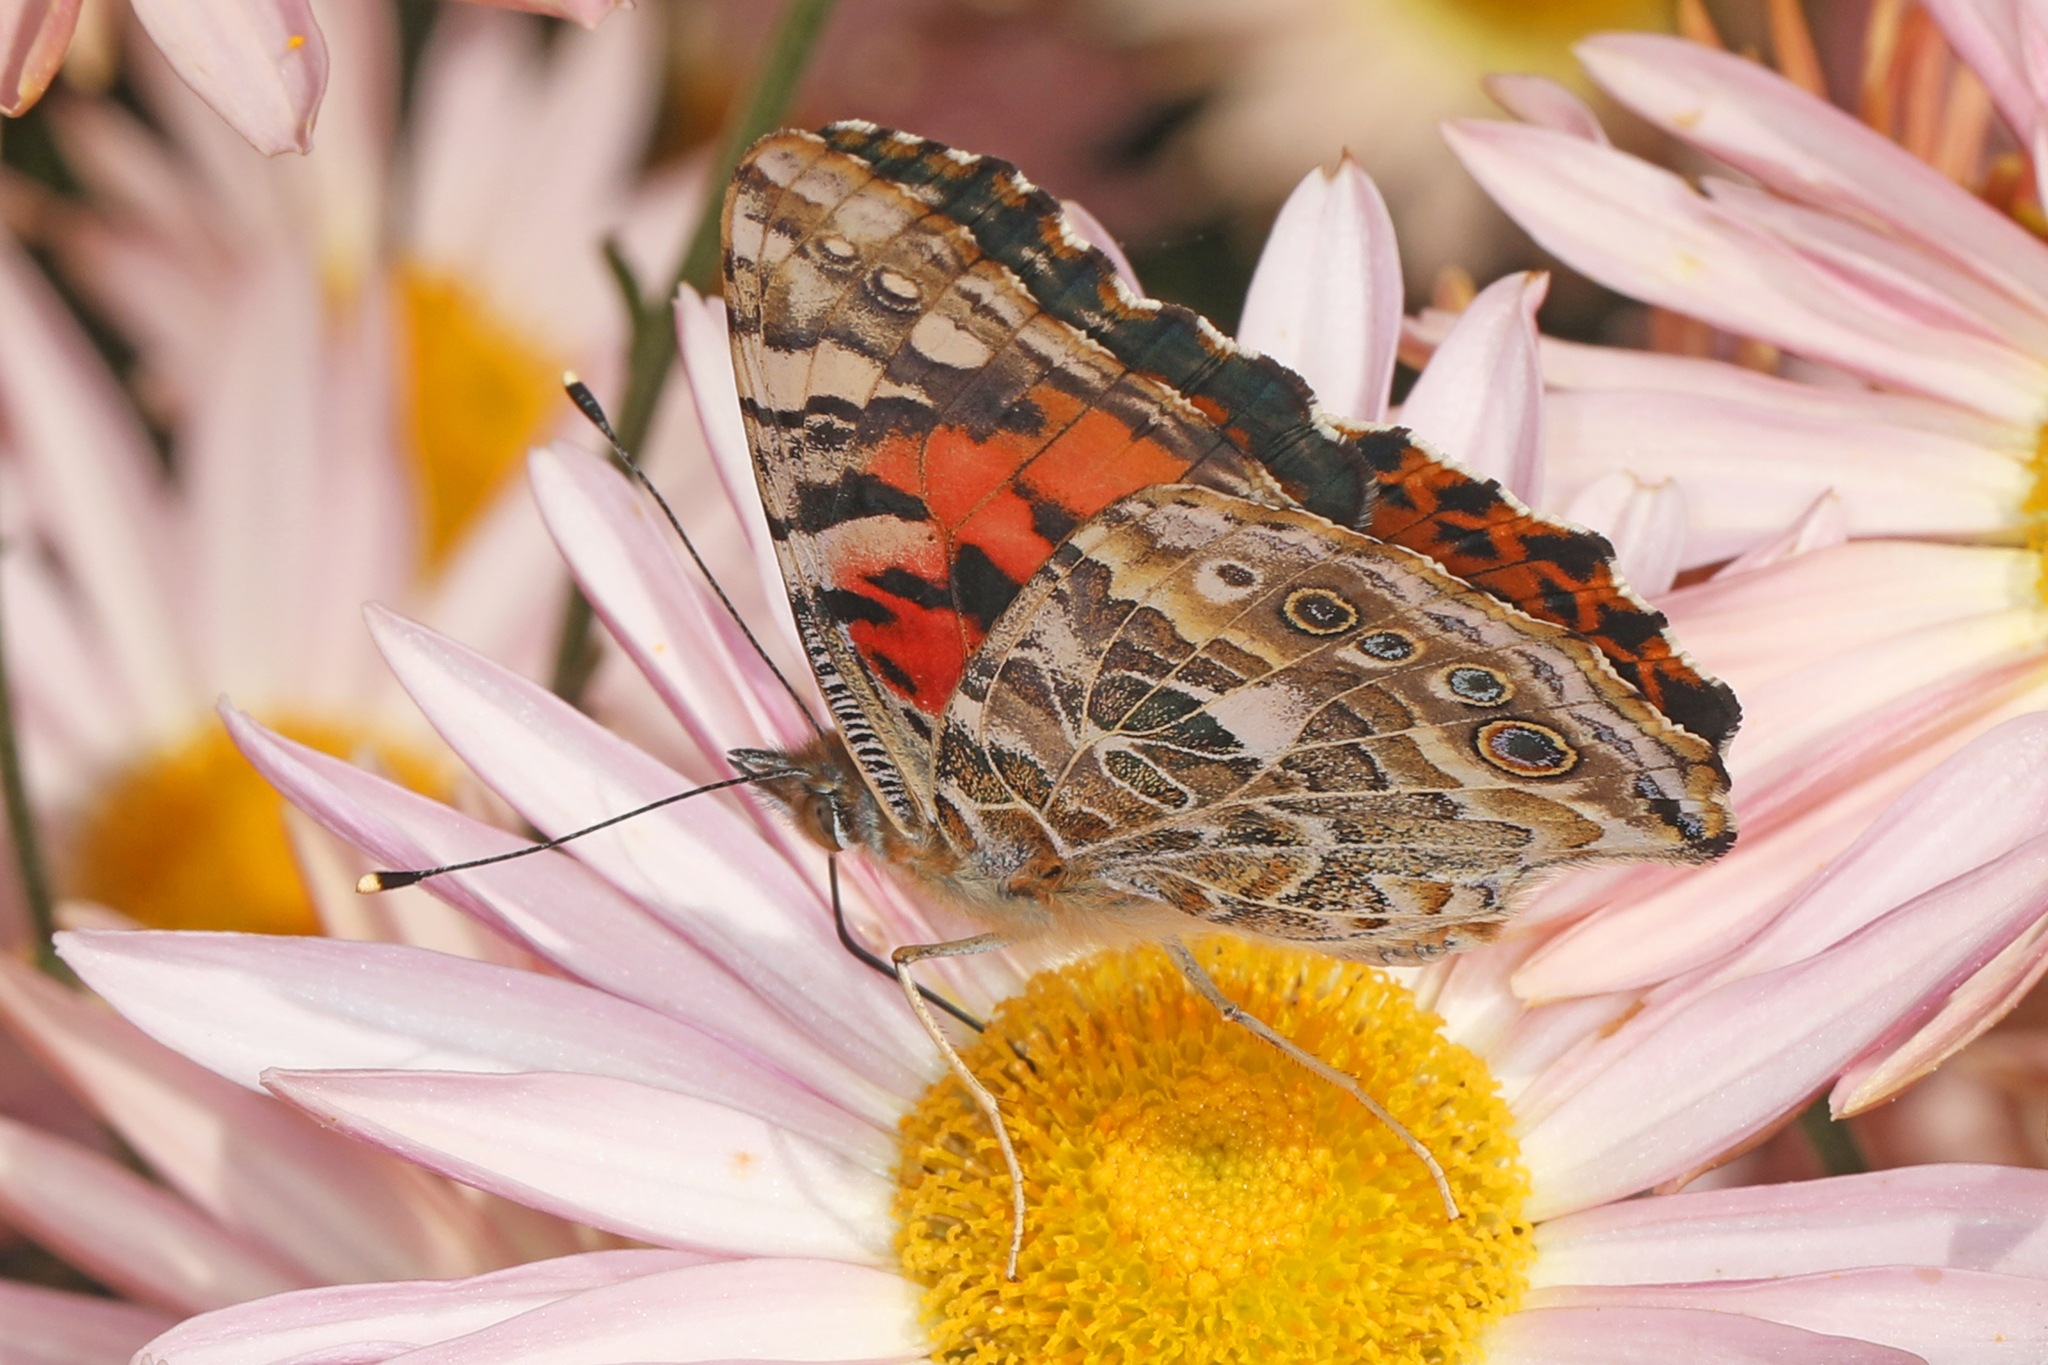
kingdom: Animalia
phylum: Arthropoda
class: Insecta
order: Lepidoptera
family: Nymphalidae
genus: Vanessa
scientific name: Vanessa cardui
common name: Painted lady
